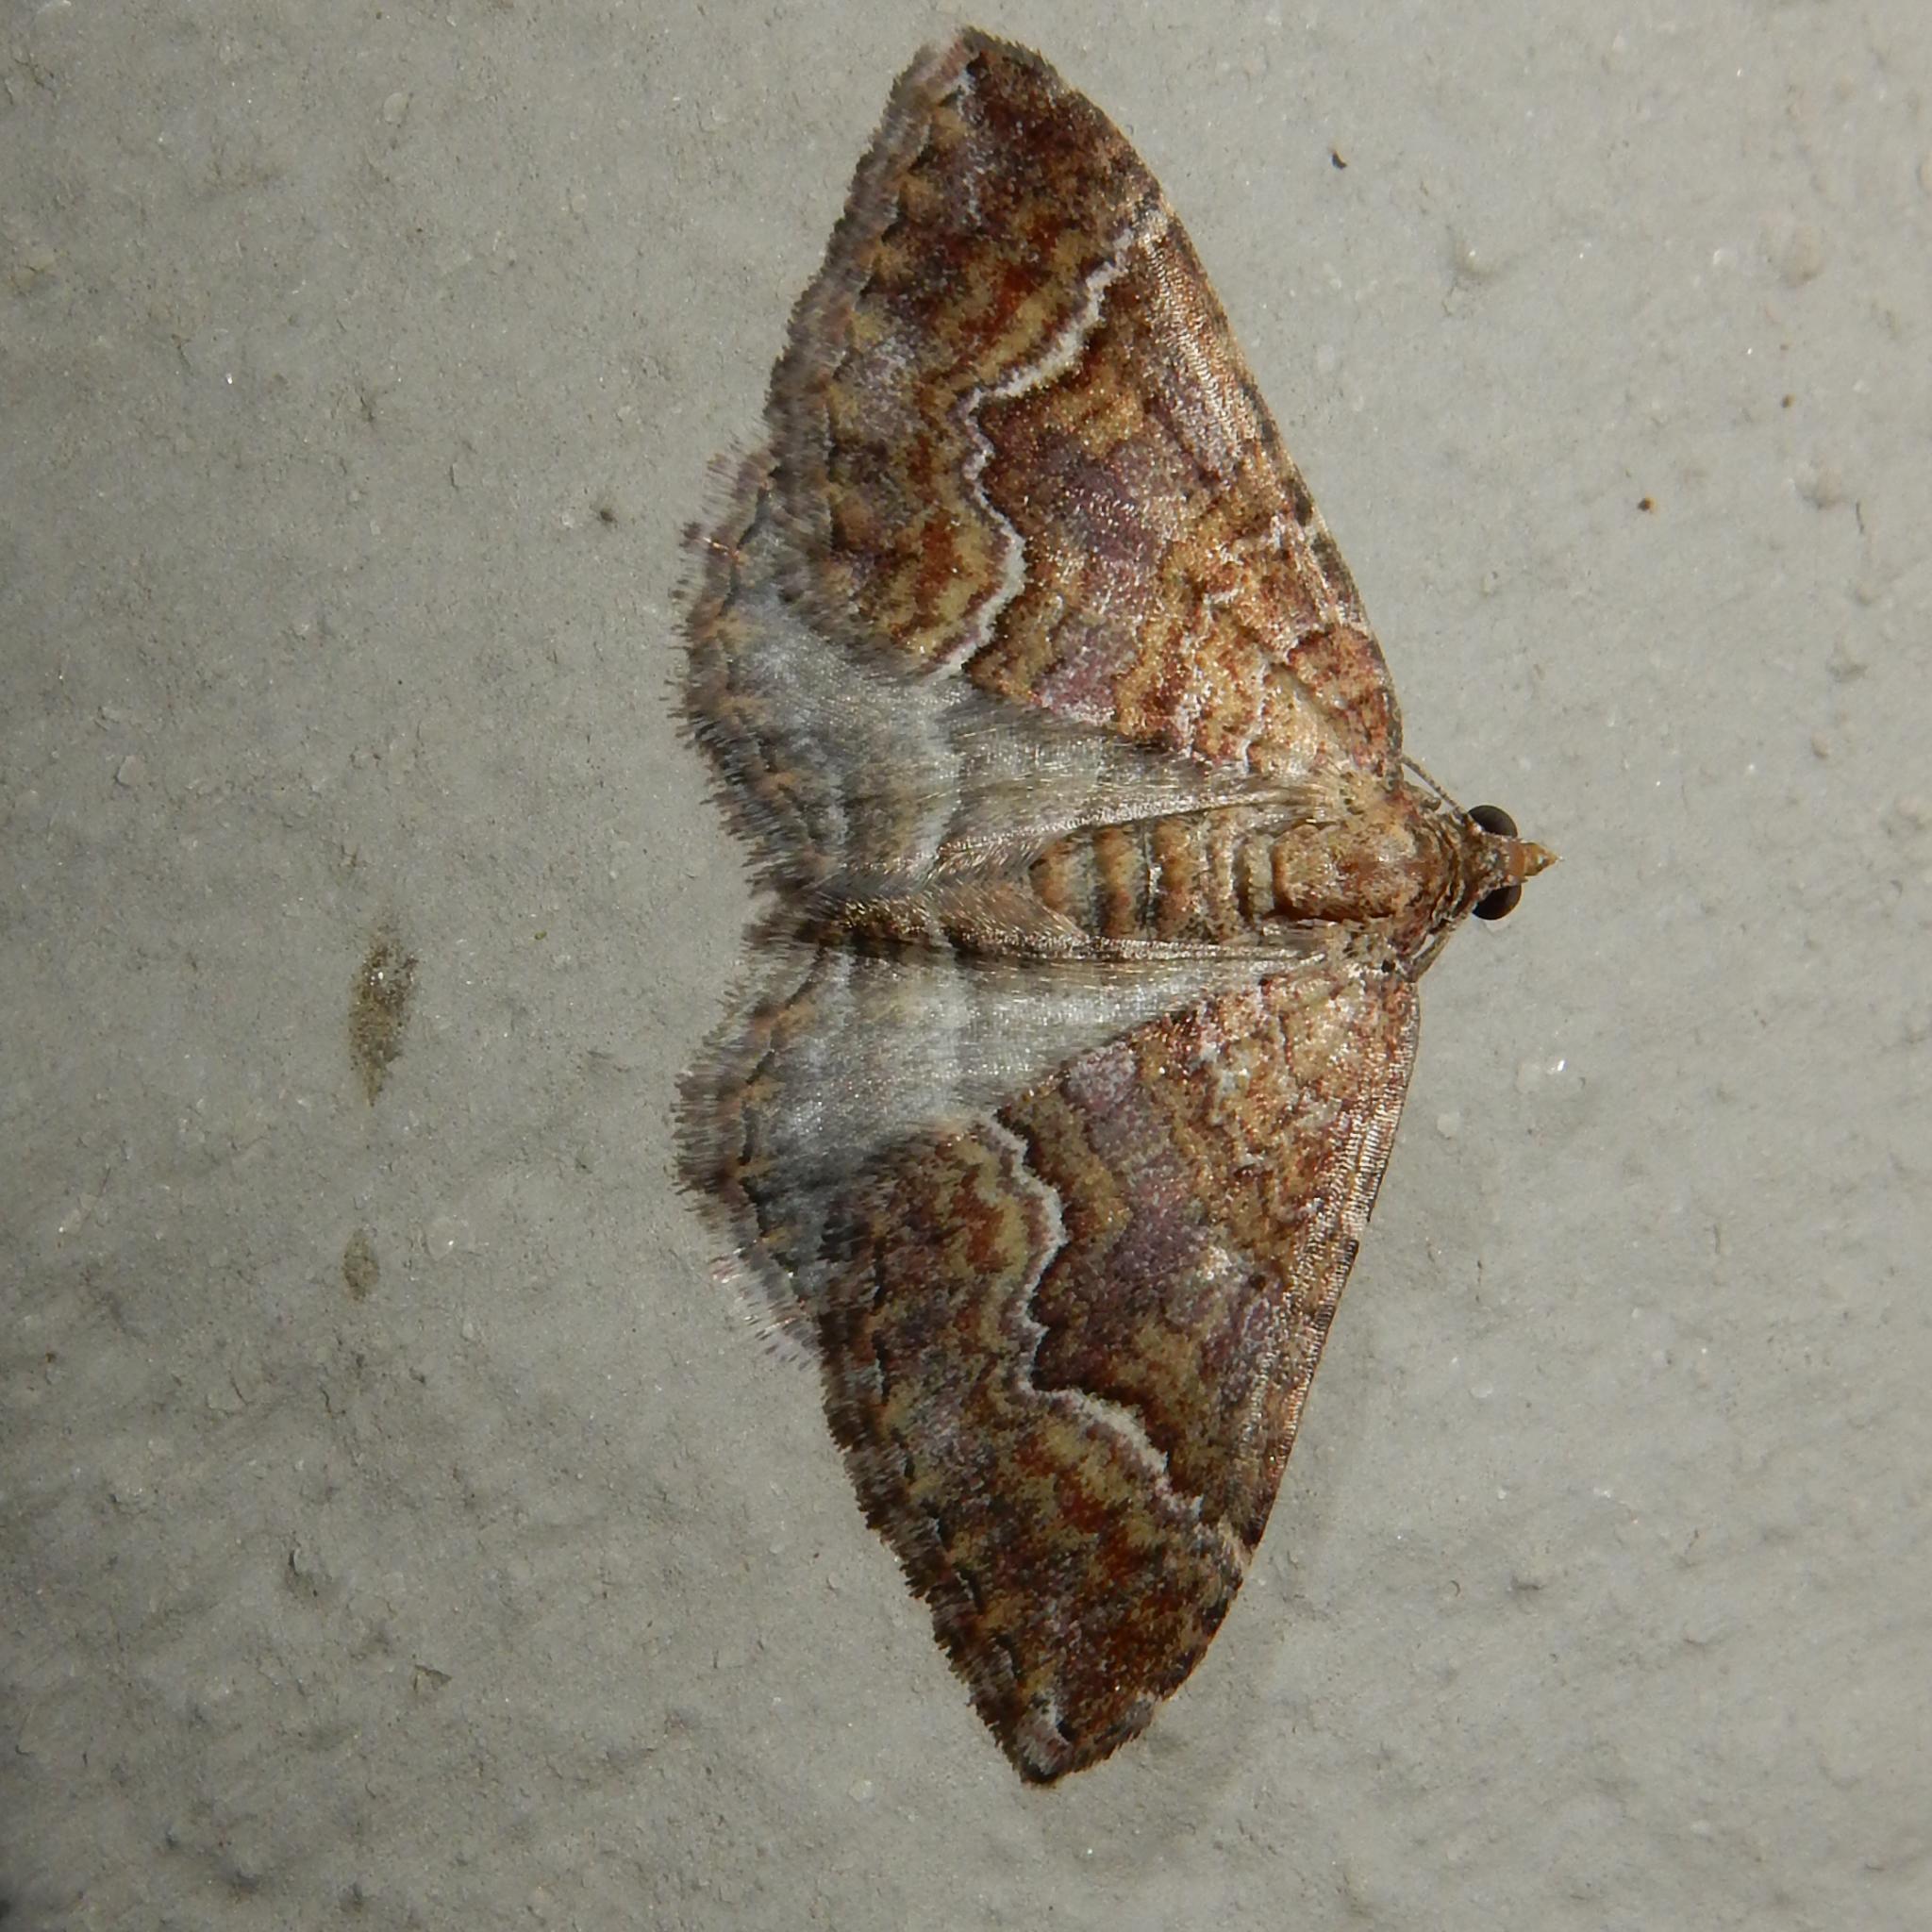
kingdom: Animalia
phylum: Arthropoda
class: Insecta
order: Lepidoptera
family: Geometridae
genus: Mimoclystia
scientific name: Mimoclystia explanata
